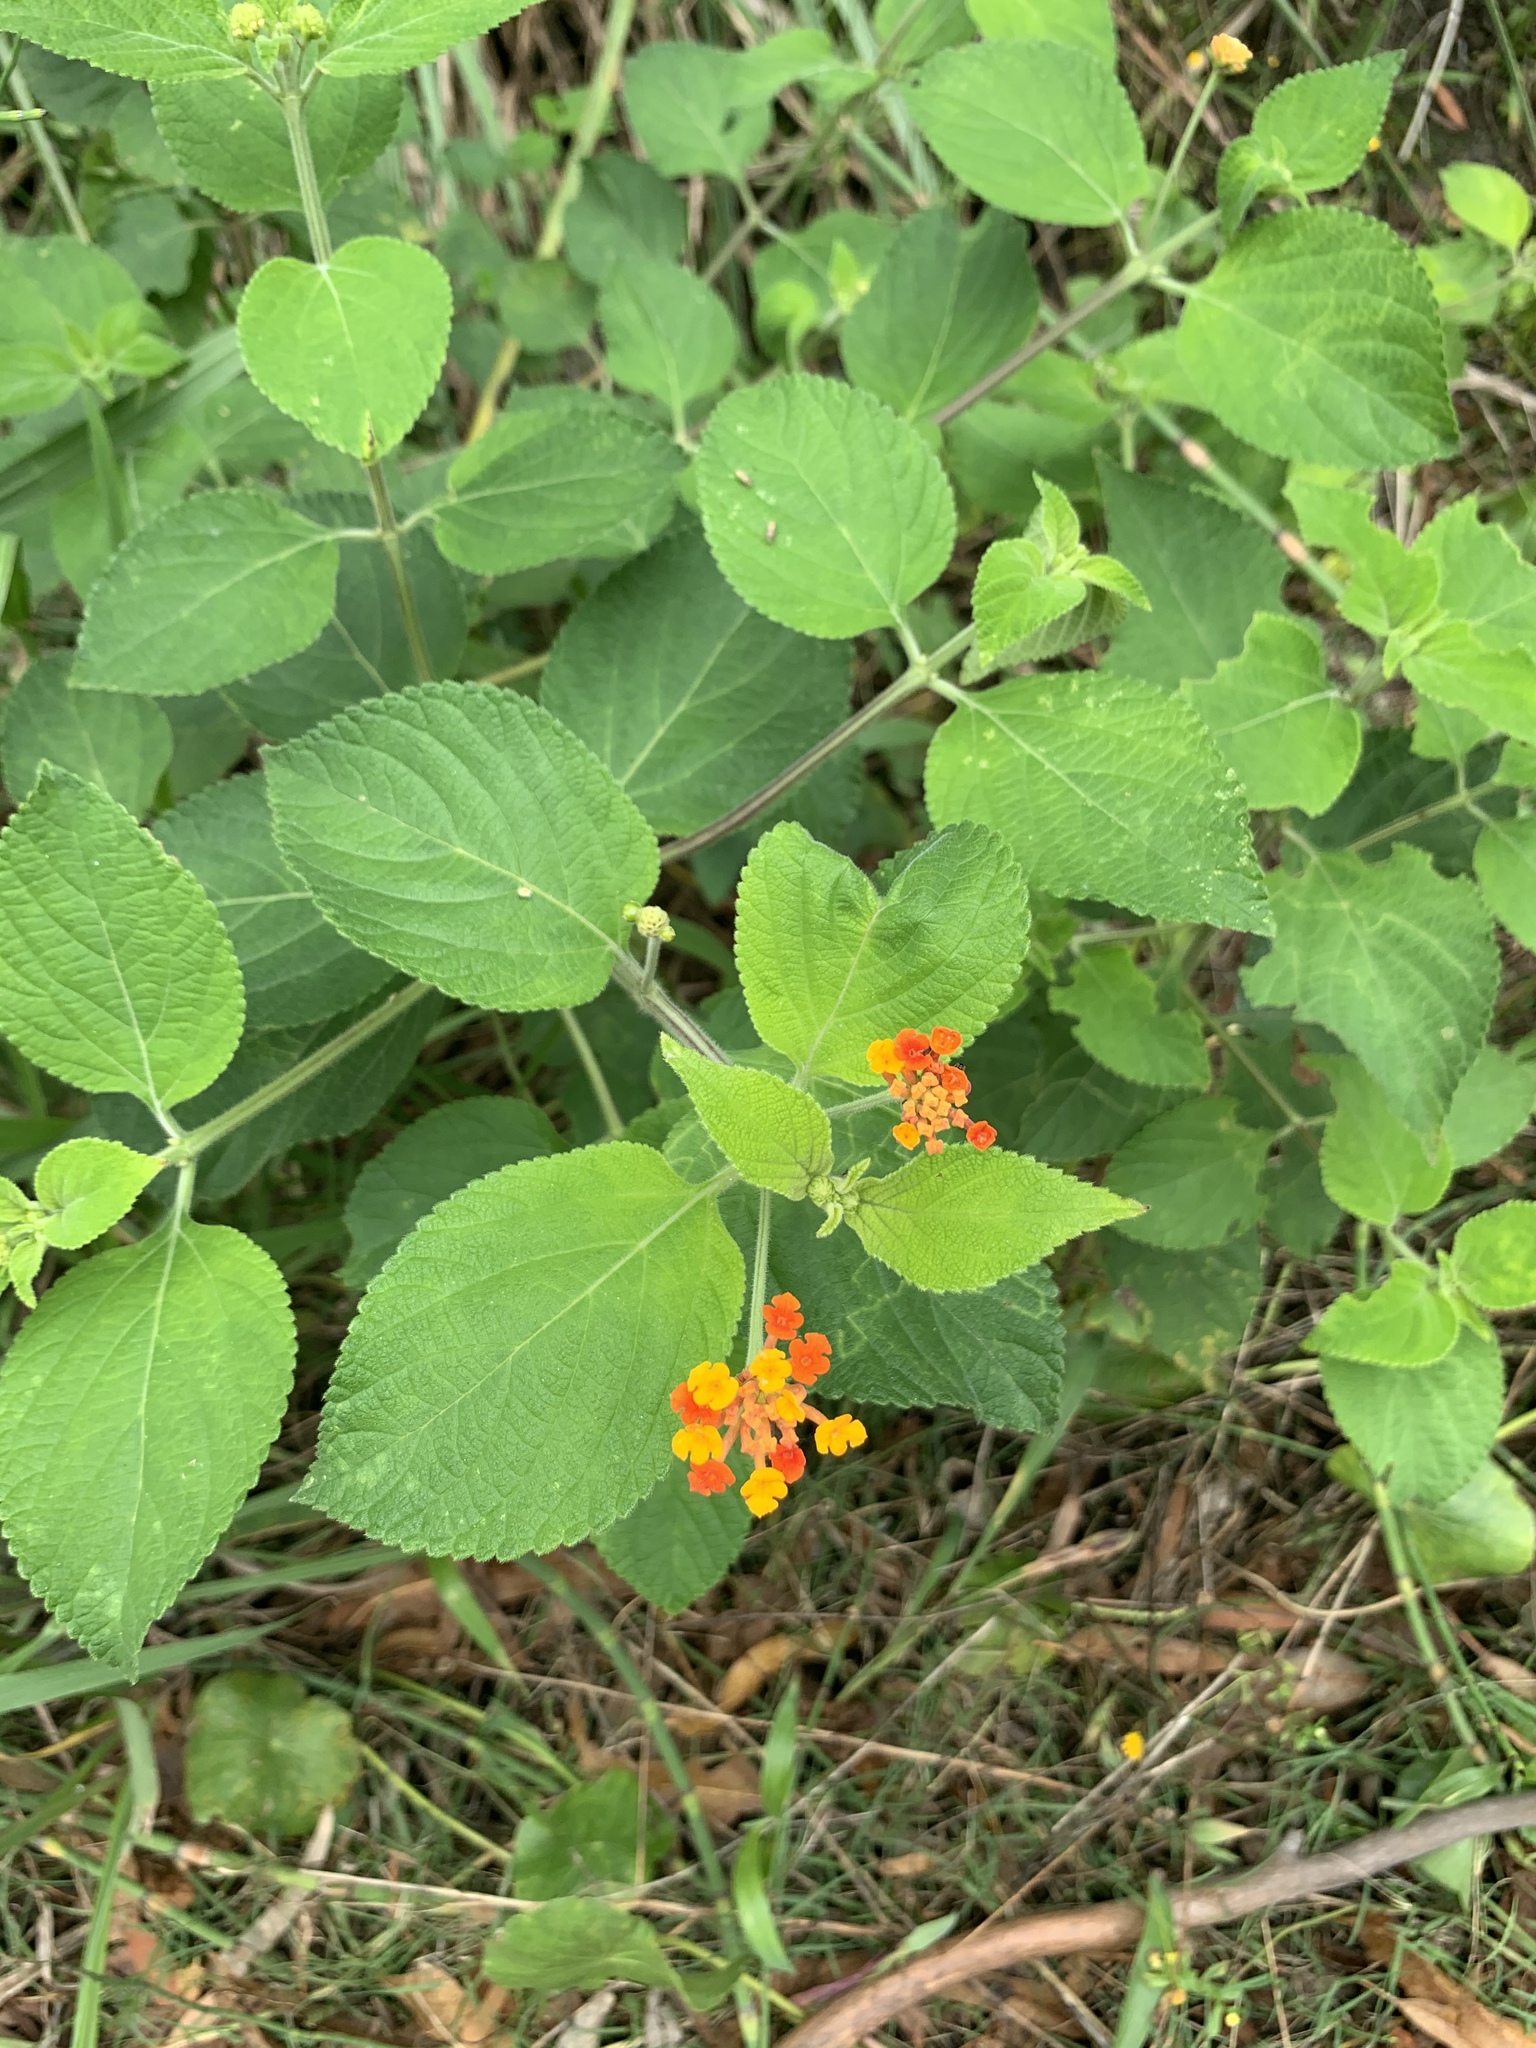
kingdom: Plantae
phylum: Tracheophyta
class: Magnoliopsida
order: Lamiales
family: Verbenaceae
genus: Lantana
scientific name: Lantana camara
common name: Lantana
